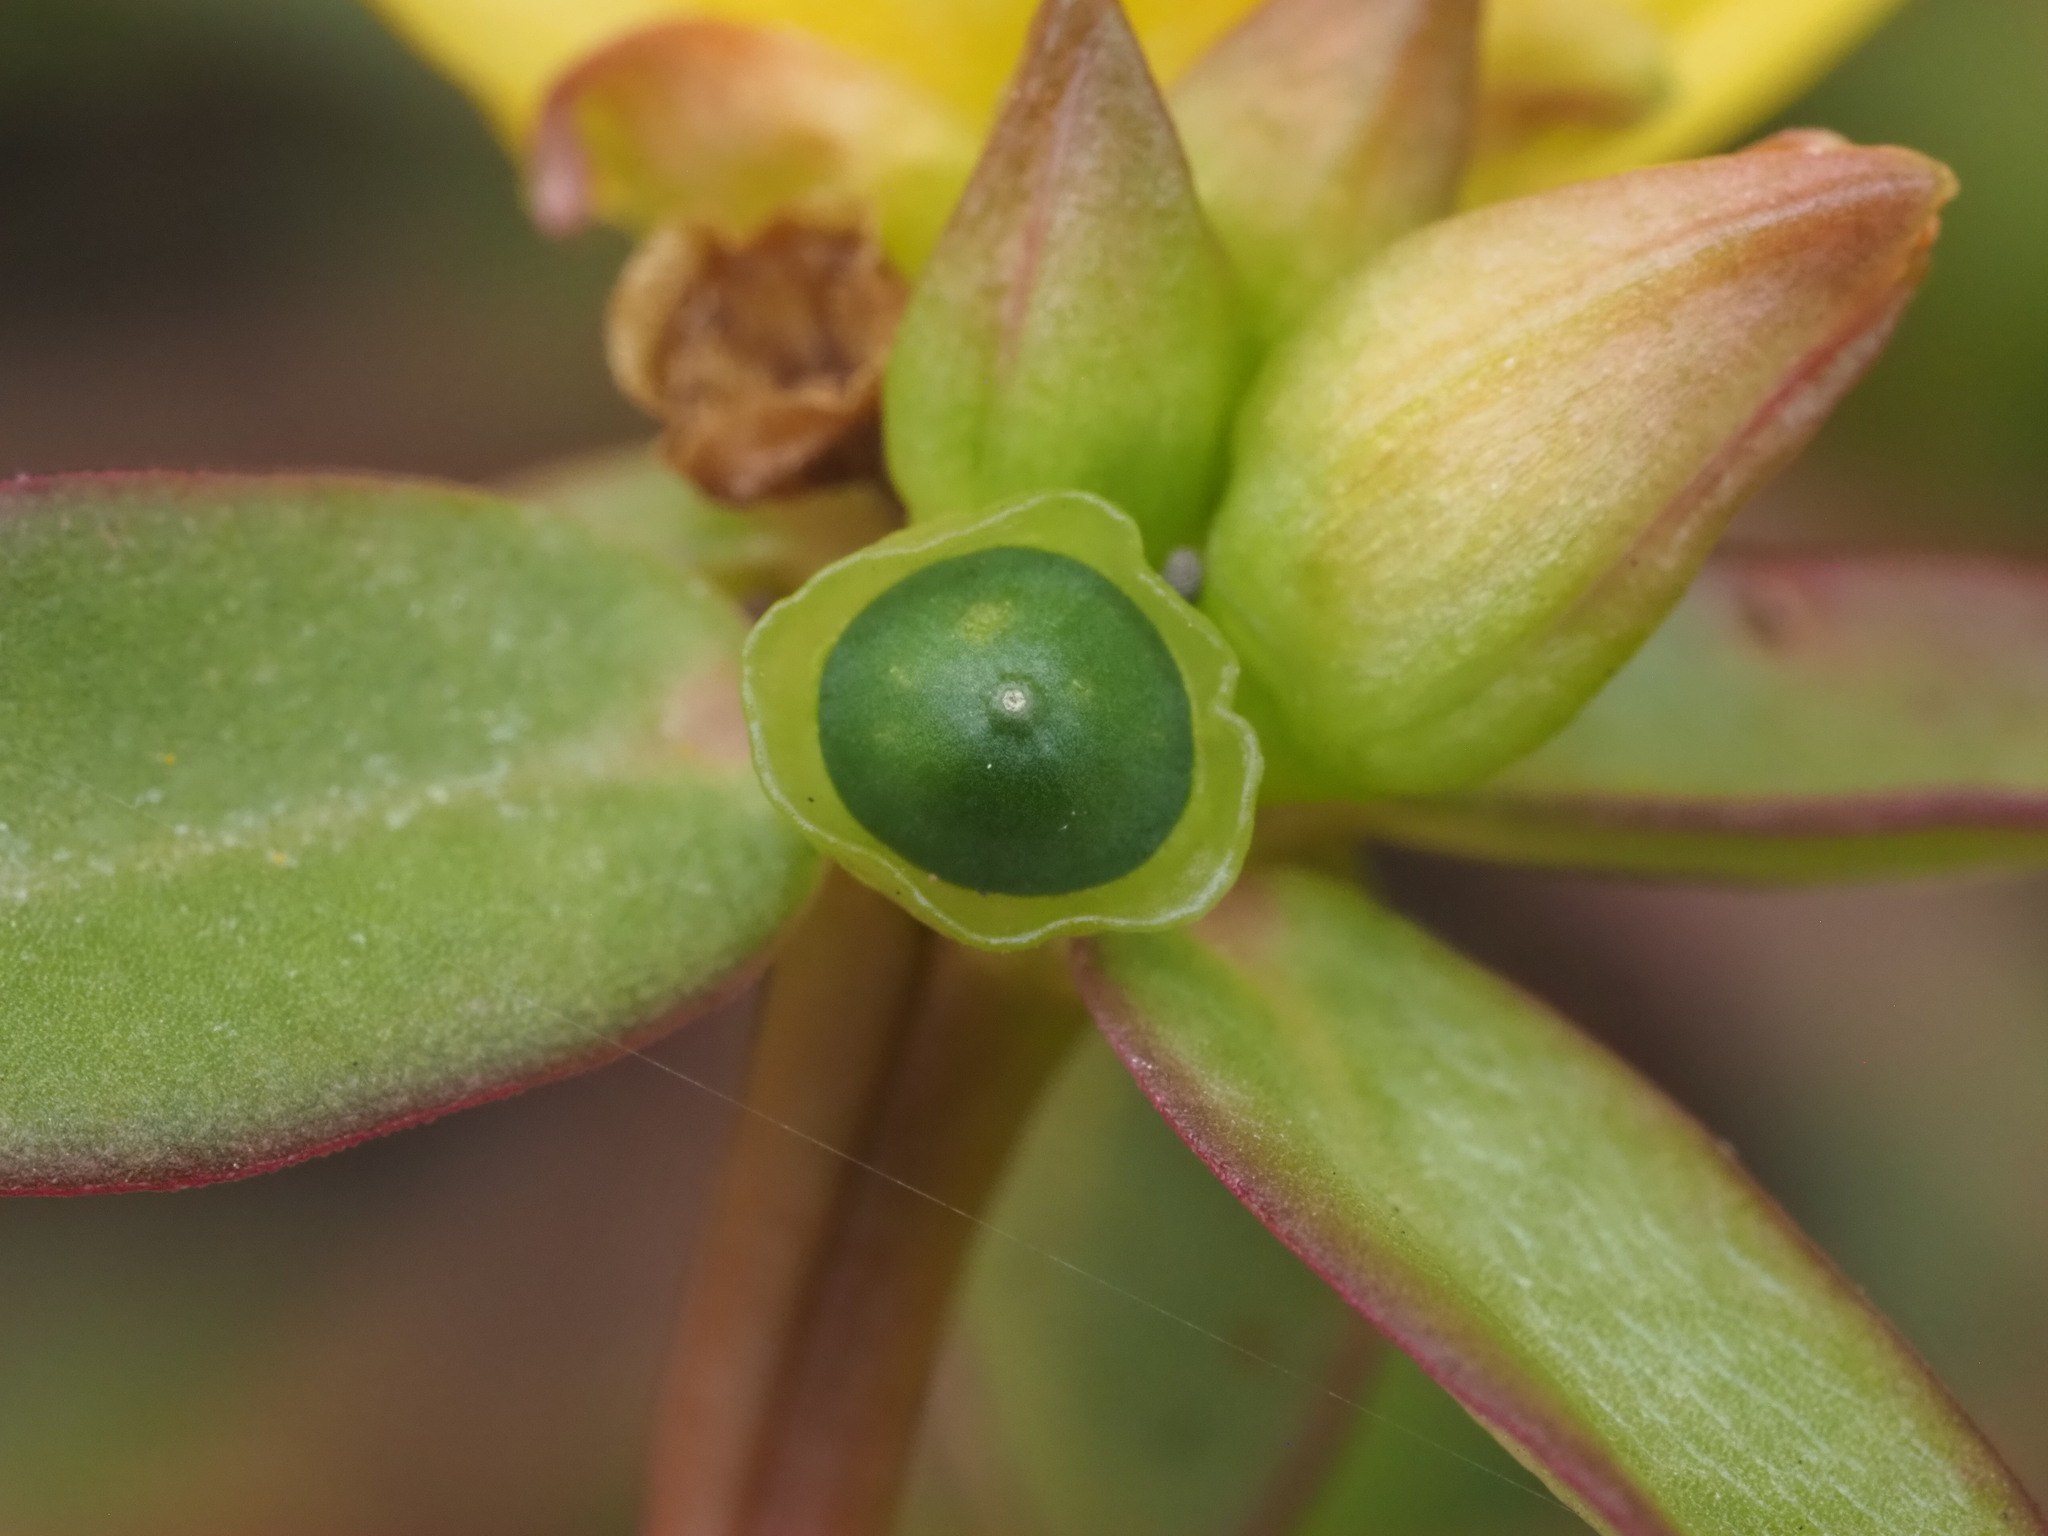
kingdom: Plantae
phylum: Tracheophyta
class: Magnoliopsida
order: Caryophyllales
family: Portulacaceae
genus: Portulaca
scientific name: Portulaca umbraticola
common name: Wingpod purslane
